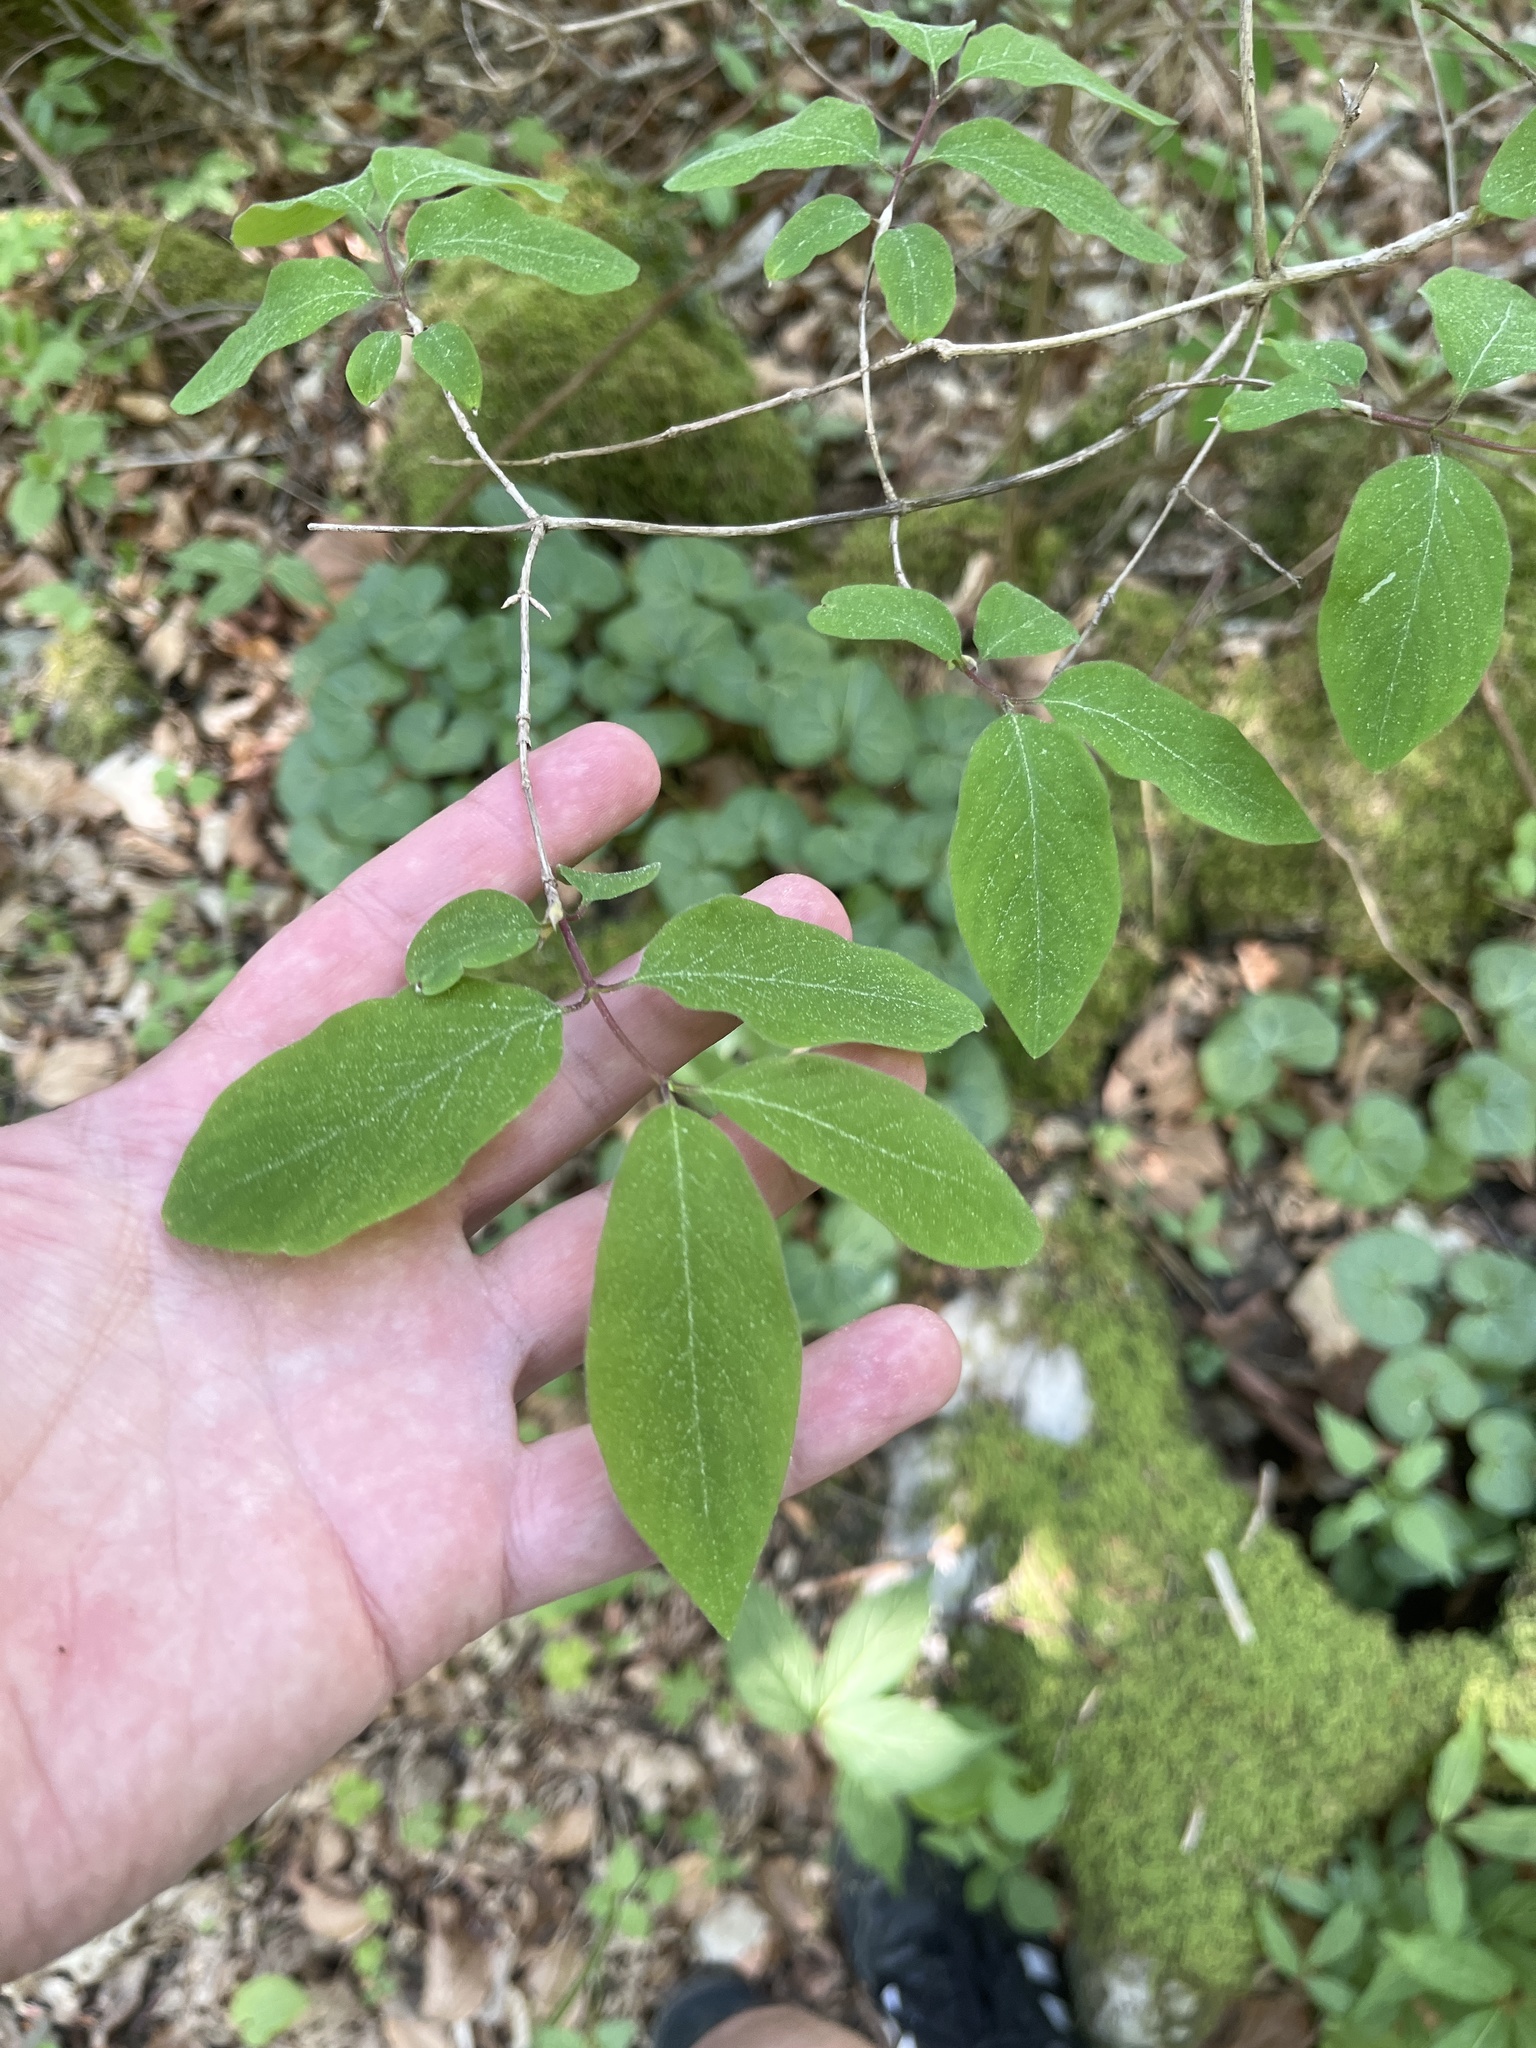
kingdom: Plantae
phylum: Tracheophyta
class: Magnoliopsida
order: Dipsacales
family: Caprifoliaceae
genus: Lonicera
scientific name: Lonicera xylosteum
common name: Fly honeysuckle
